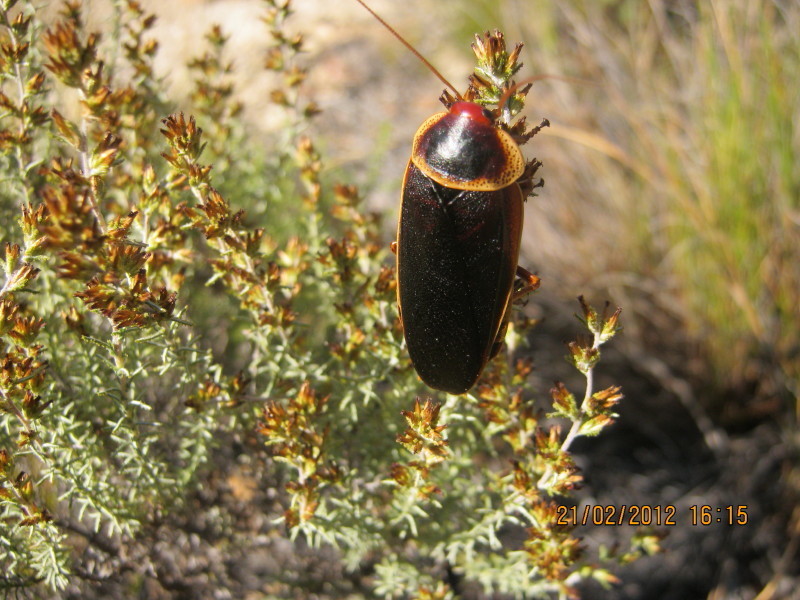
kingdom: Animalia
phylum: Arthropoda
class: Insecta
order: Blattodea
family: Blaberidae
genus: Aptera
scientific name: Aptera fusca
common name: Cape mountain cockroach
